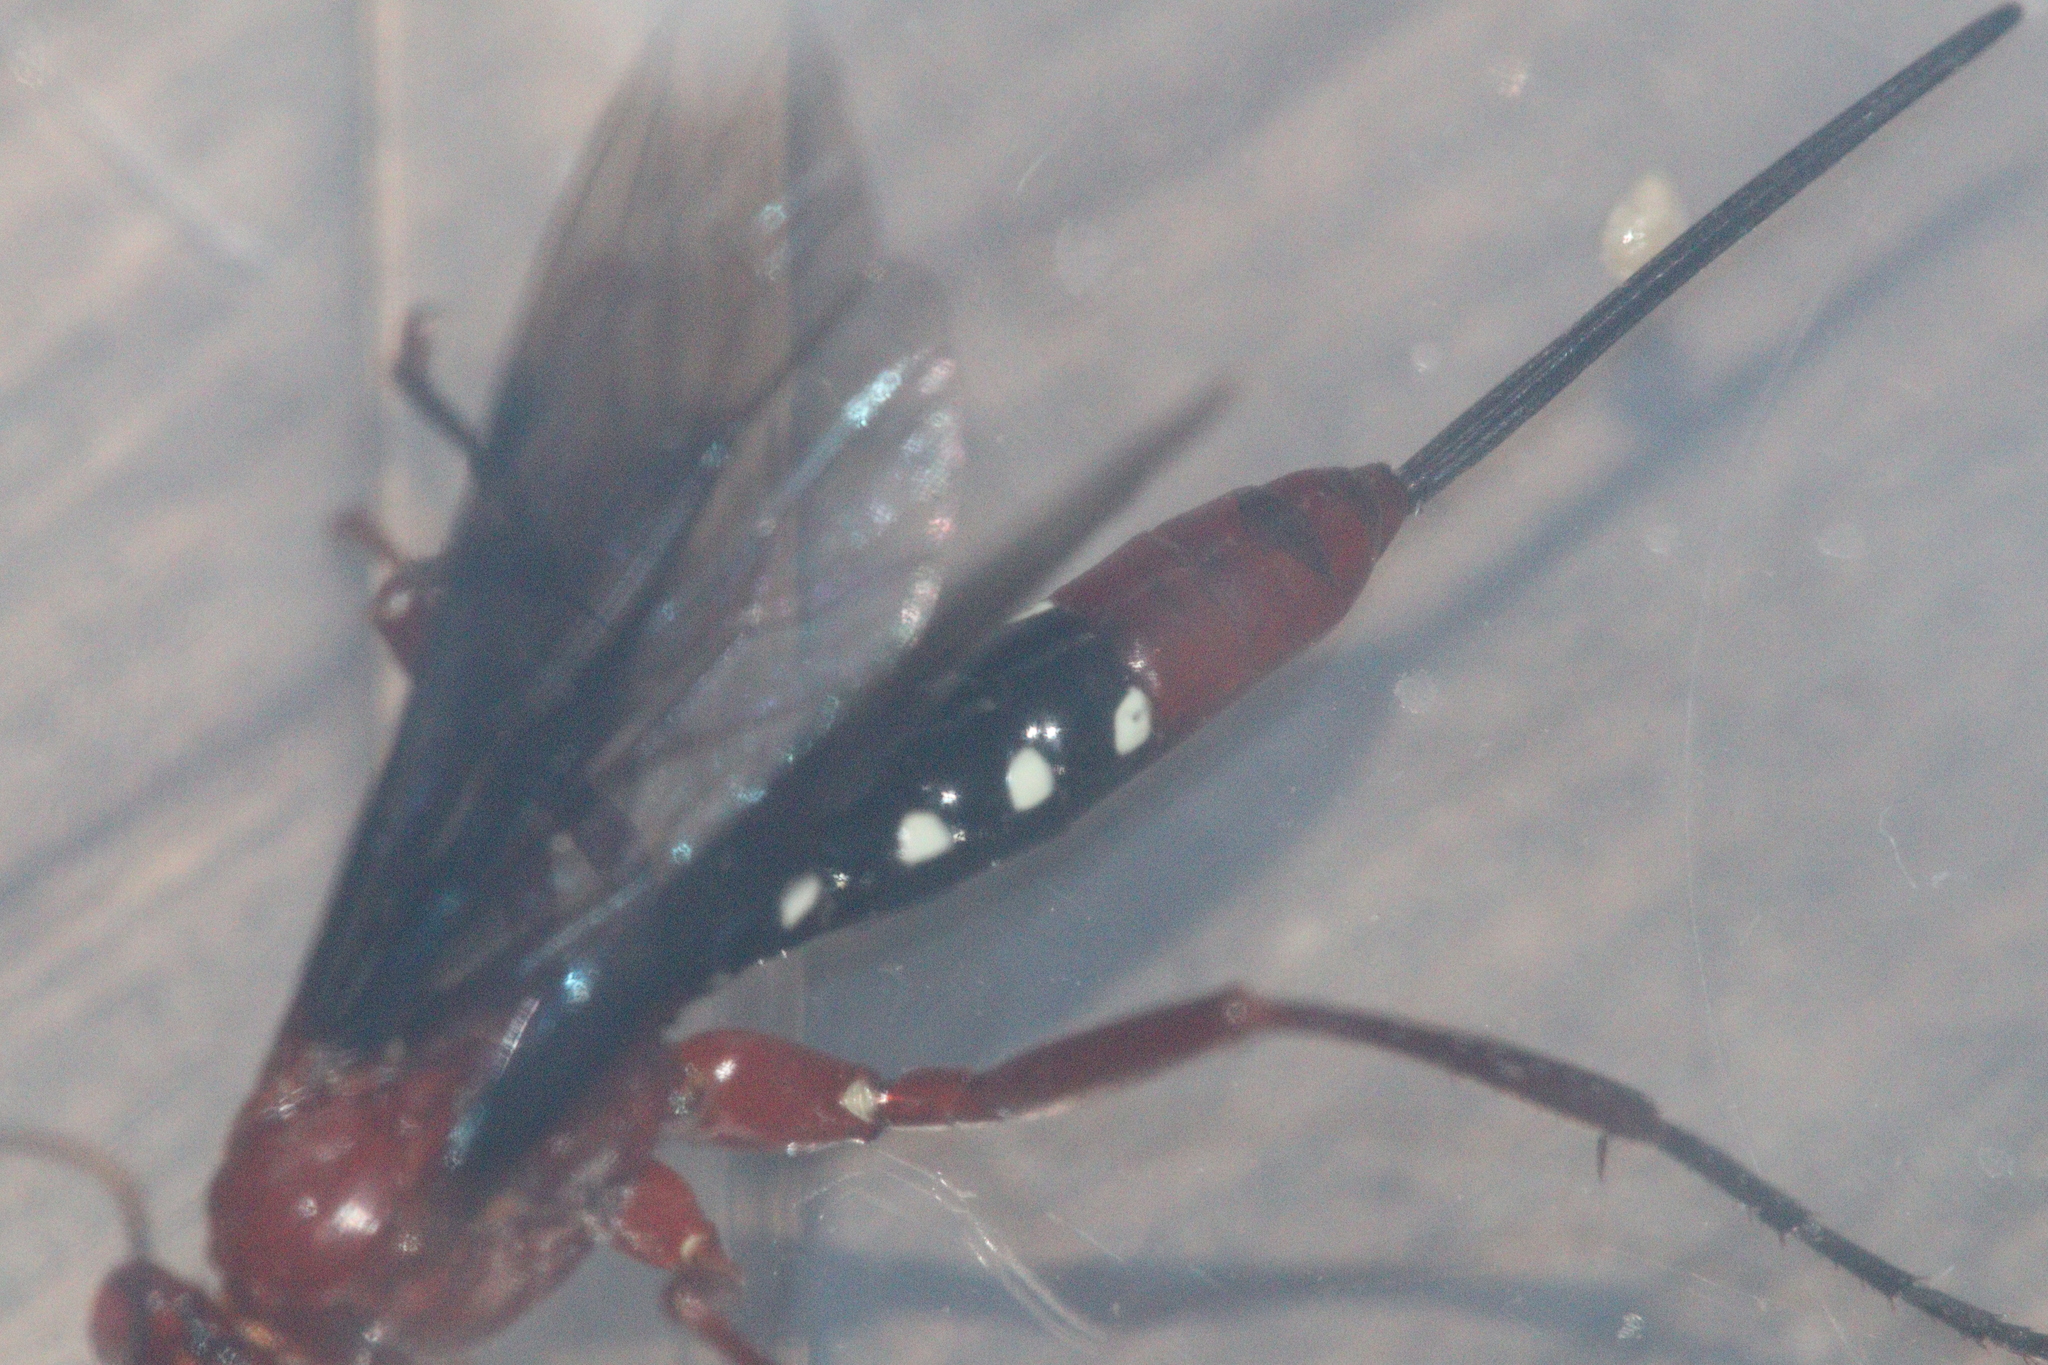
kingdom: Animalia
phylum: Arthropoda
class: Insecta
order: Hymenoptera
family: Ichneumonidae
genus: Lissopimpla
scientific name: Lissopimpla excelsa
